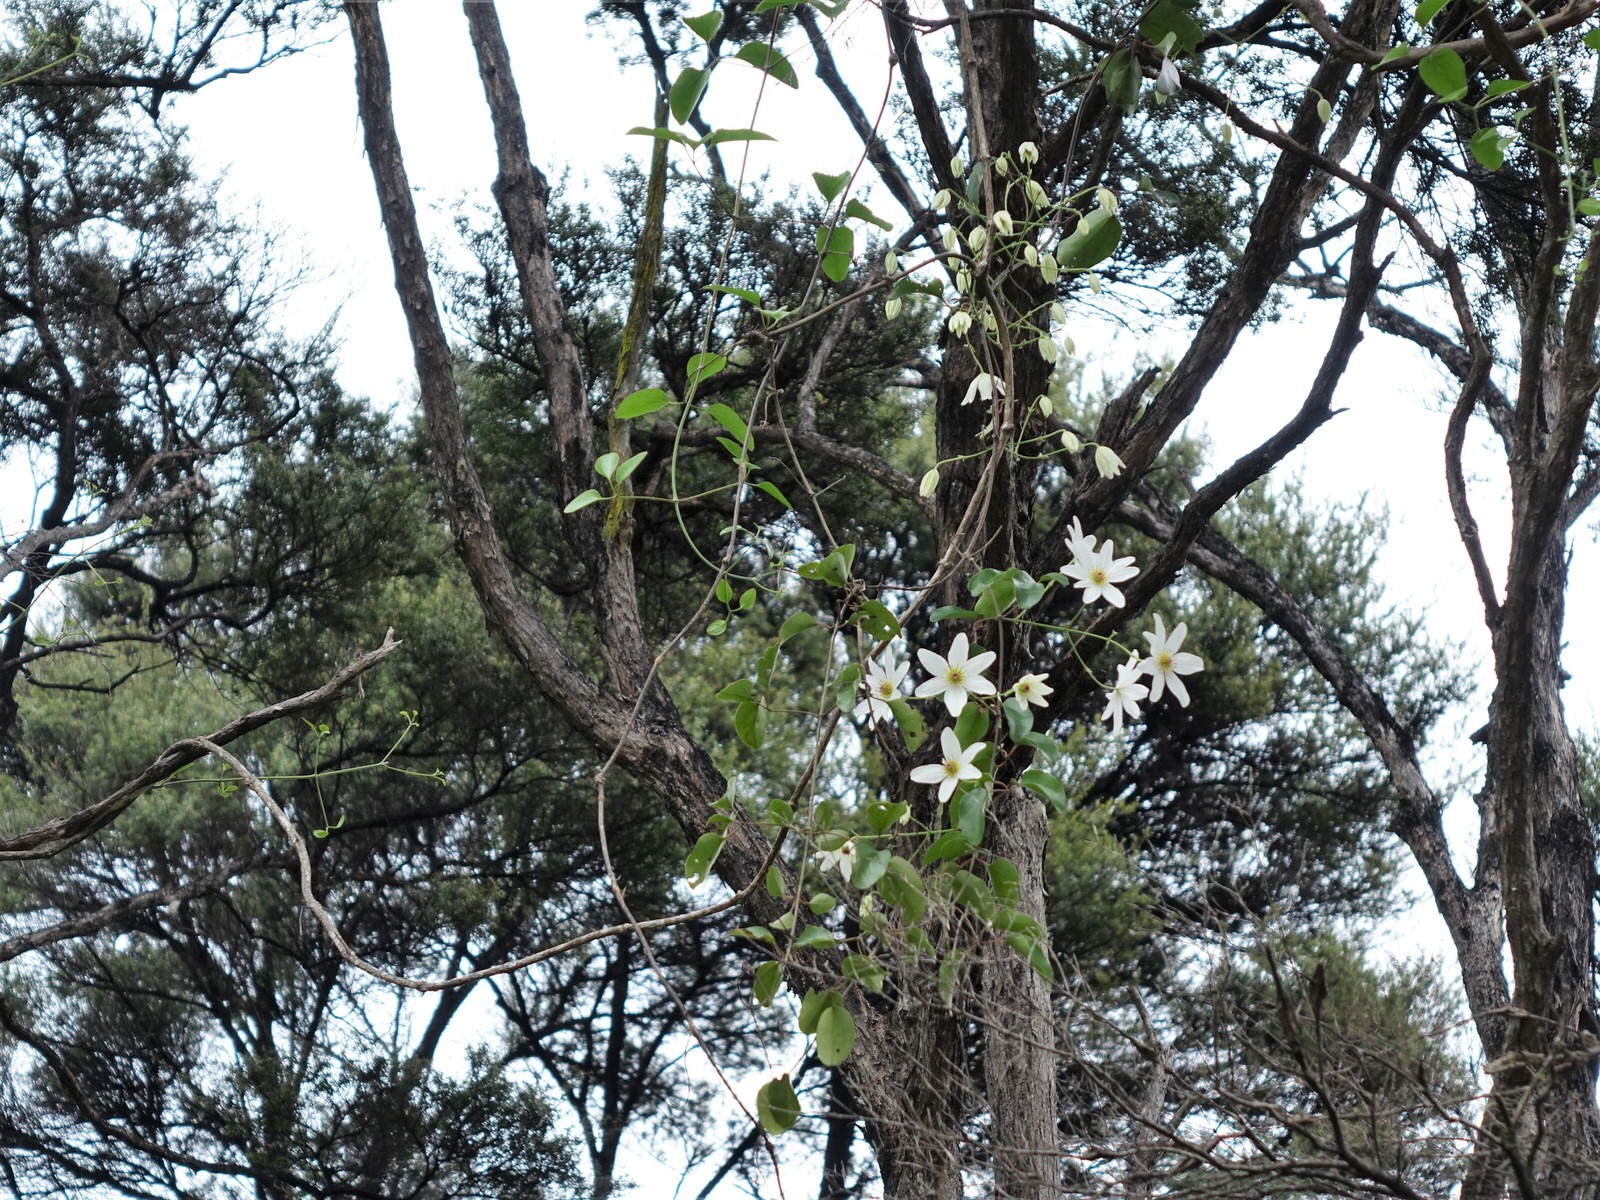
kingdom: Plantae
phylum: Tracheophyta
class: Magnoliopsida
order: Ranunculales
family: Ranunculaceae
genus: Clematis
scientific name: Clematis paniculata
